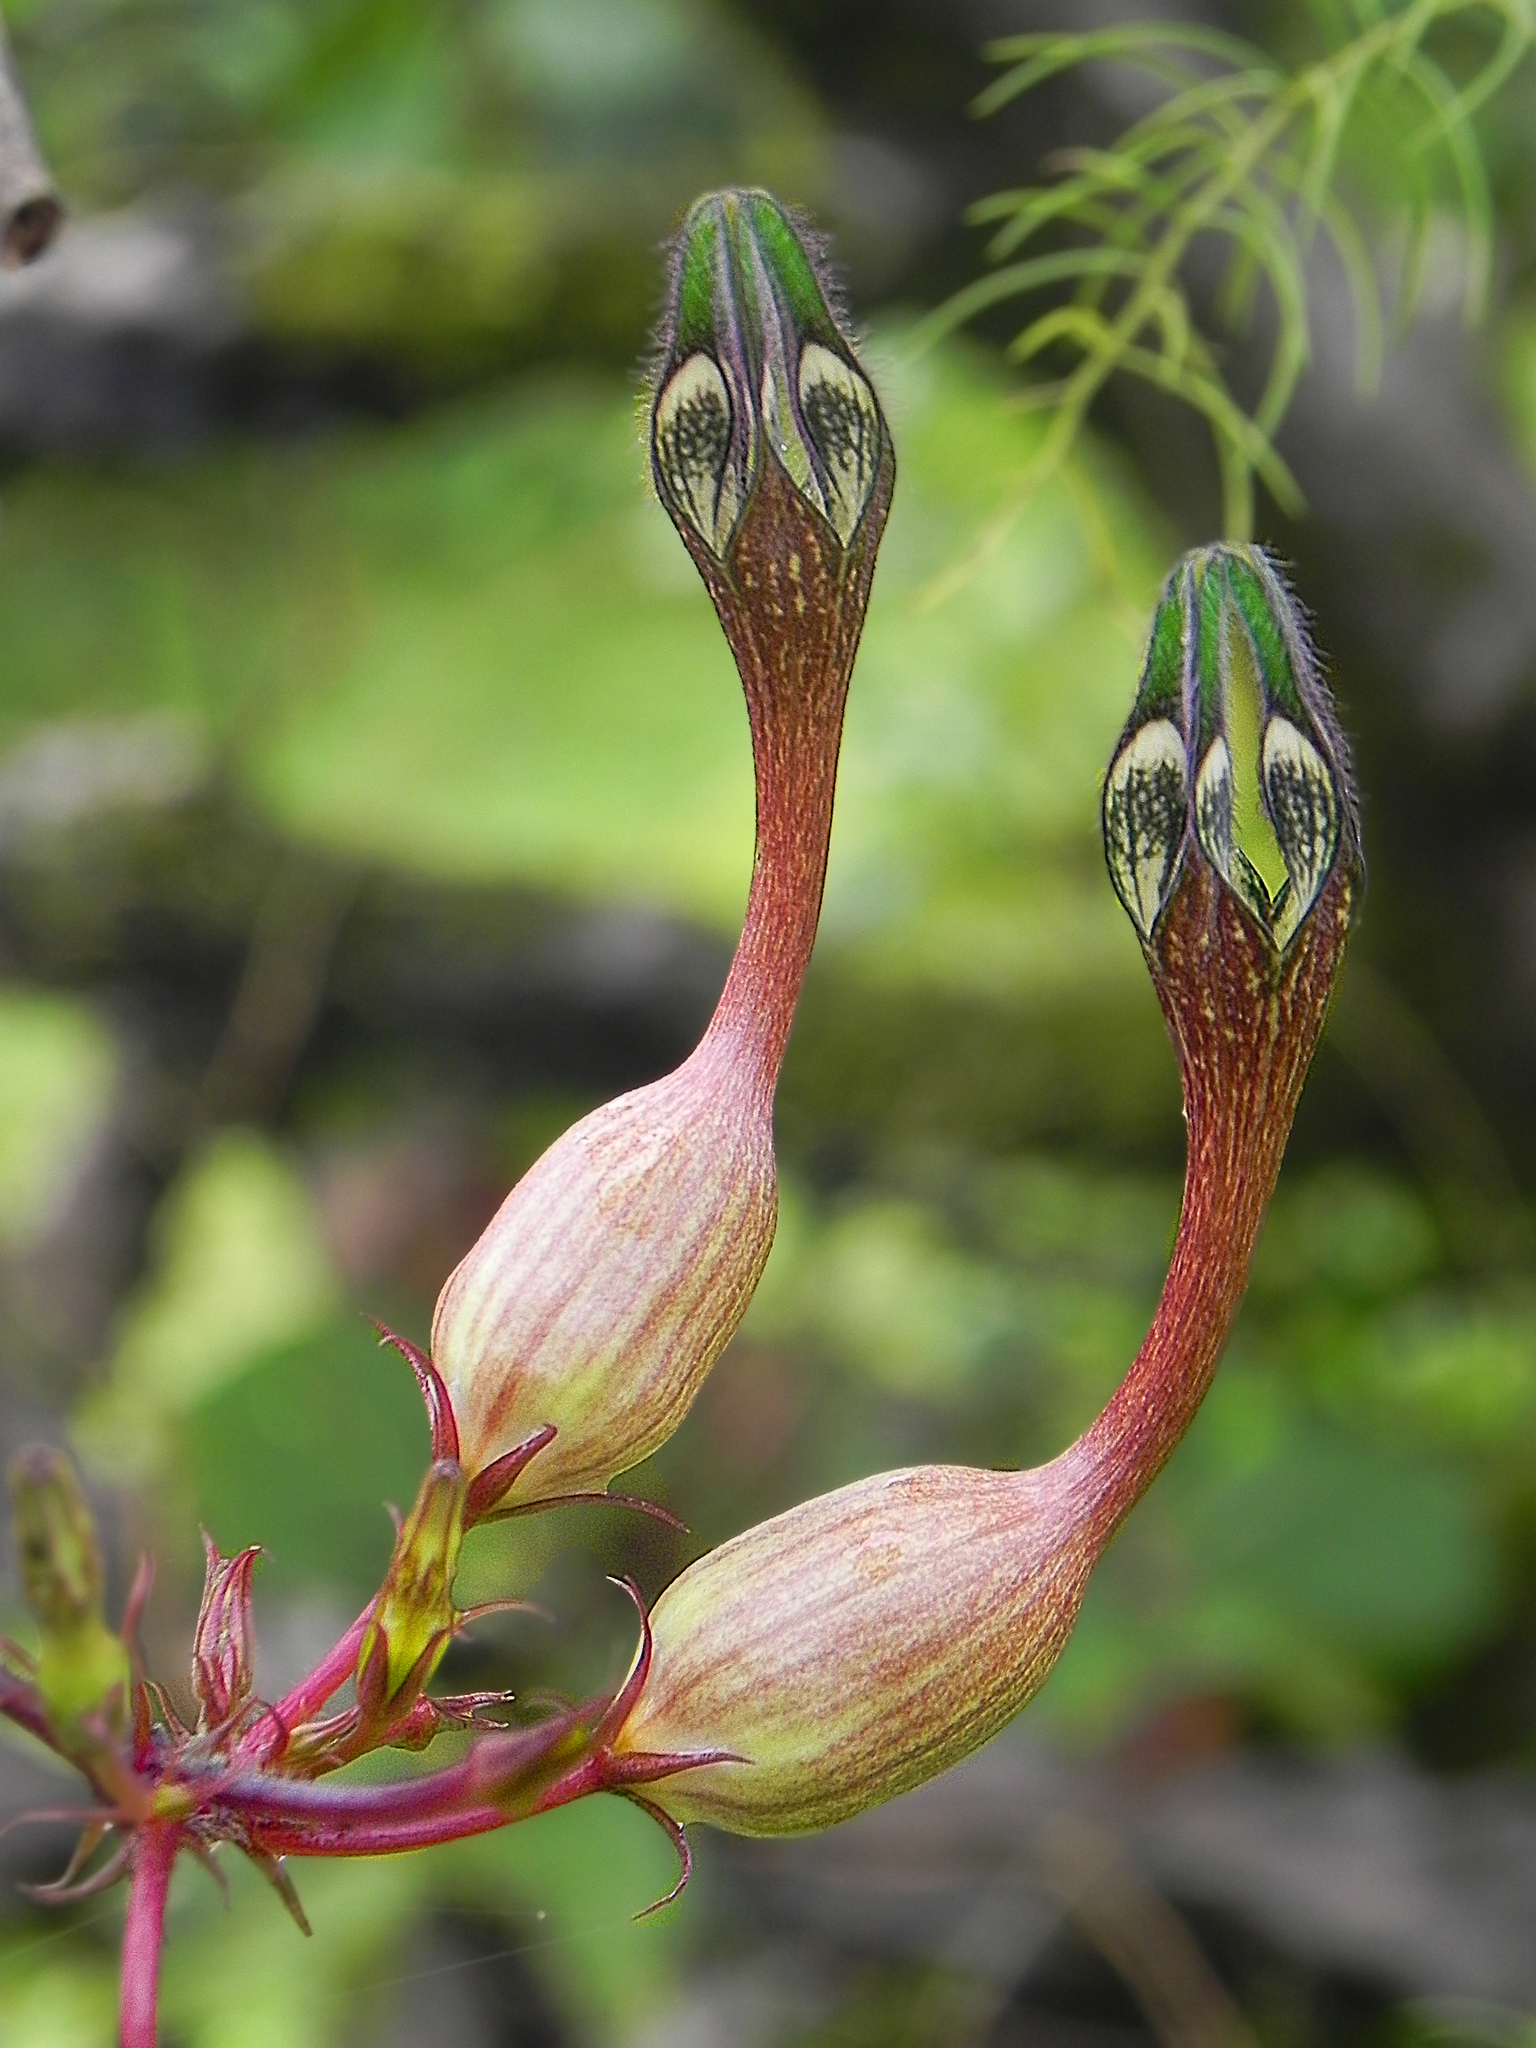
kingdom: Plantae
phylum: Tracheophyta
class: Magnoliopsida
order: Gentianales
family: Apocynaceae
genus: Ceropegia
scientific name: Ceropegia oculata
